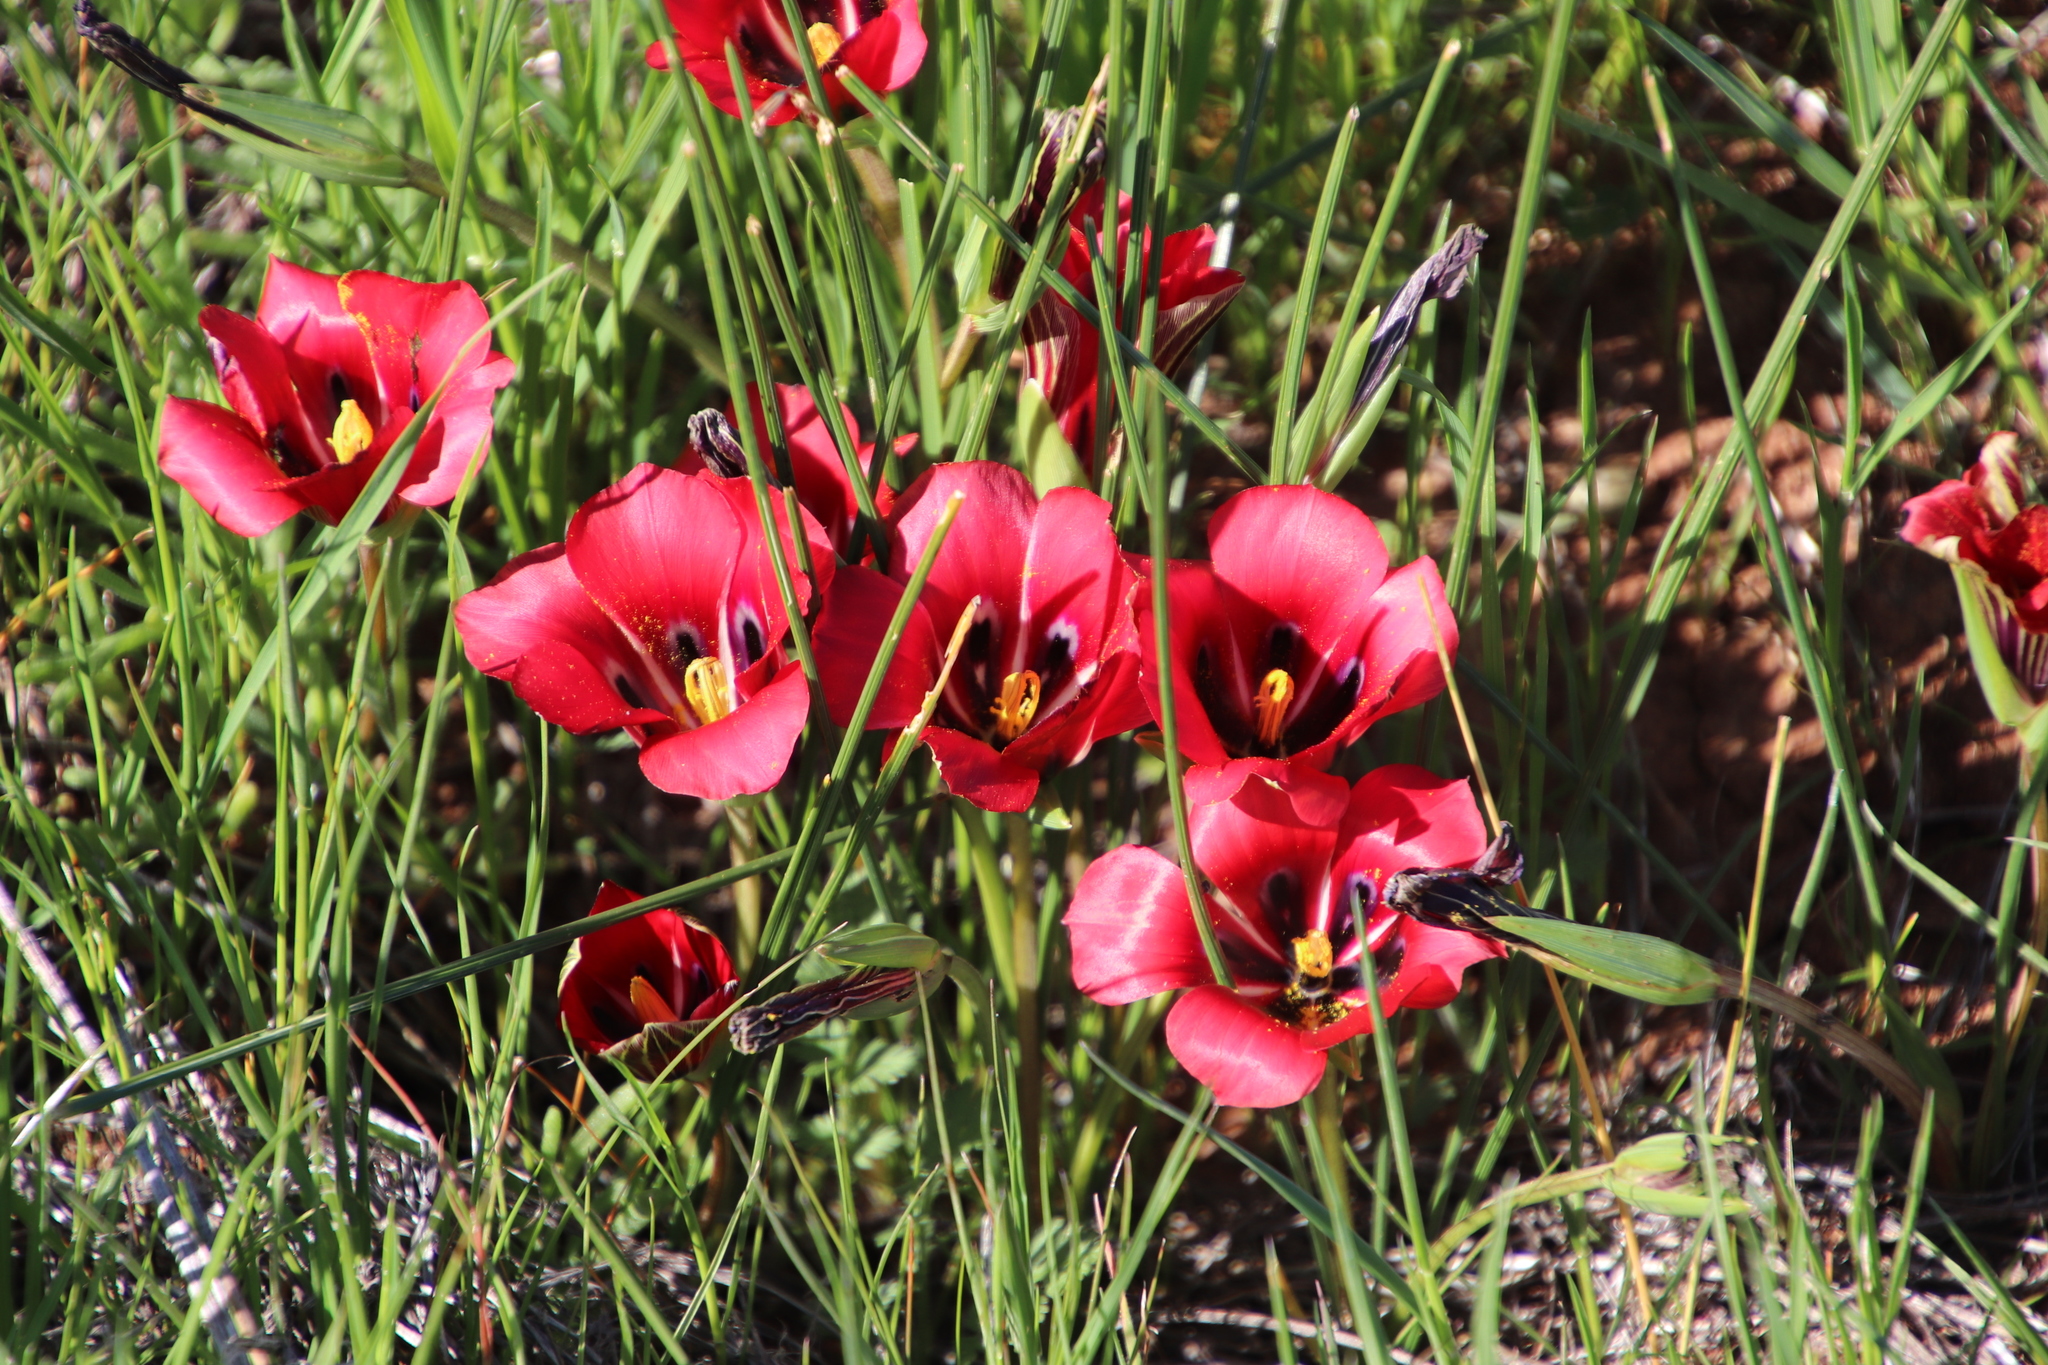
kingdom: Plantae
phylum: Tracheophyta
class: Liliopsida
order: Asparagales
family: Iridaceae
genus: Romulea
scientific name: Romulea monadelpha
